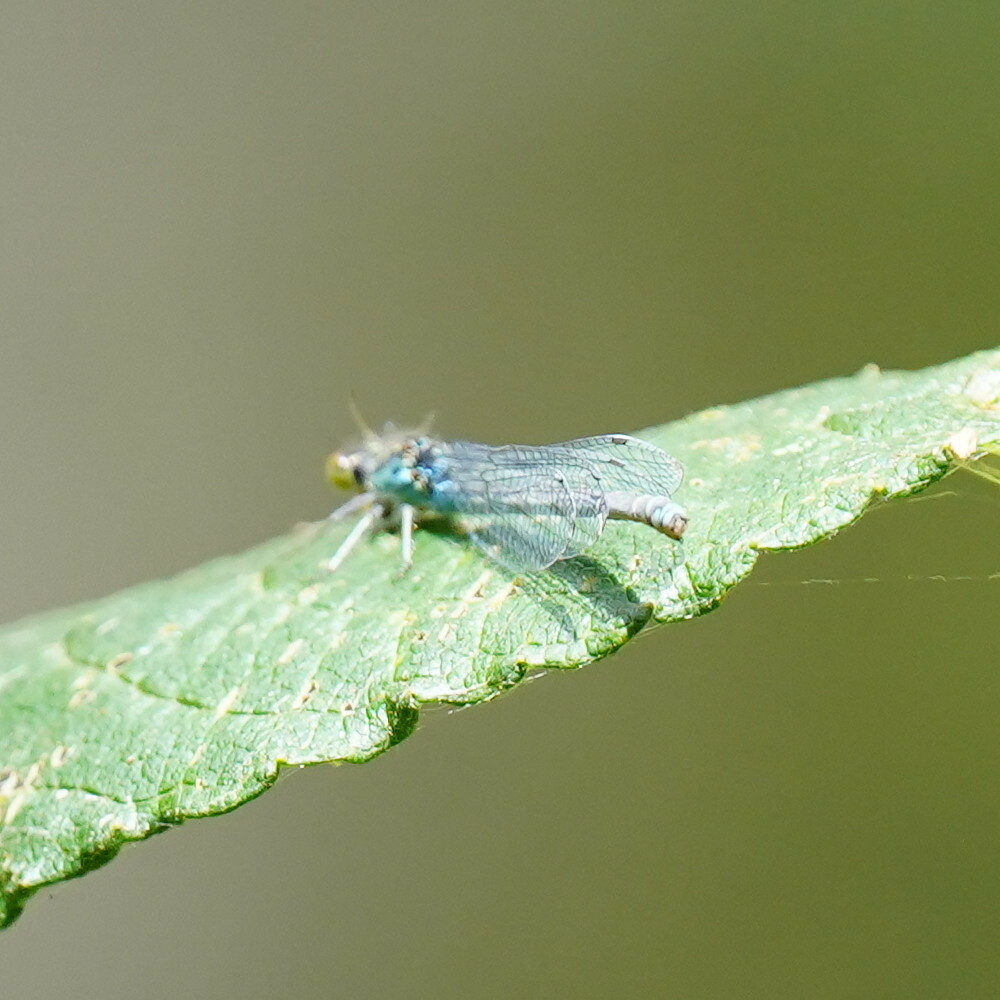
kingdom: Animalia
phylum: Arthropoda
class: Insecta
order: Odonata
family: Coenagrionidae
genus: Erythromma
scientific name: Erythromma viridulum
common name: Small red-eyed damselfly
